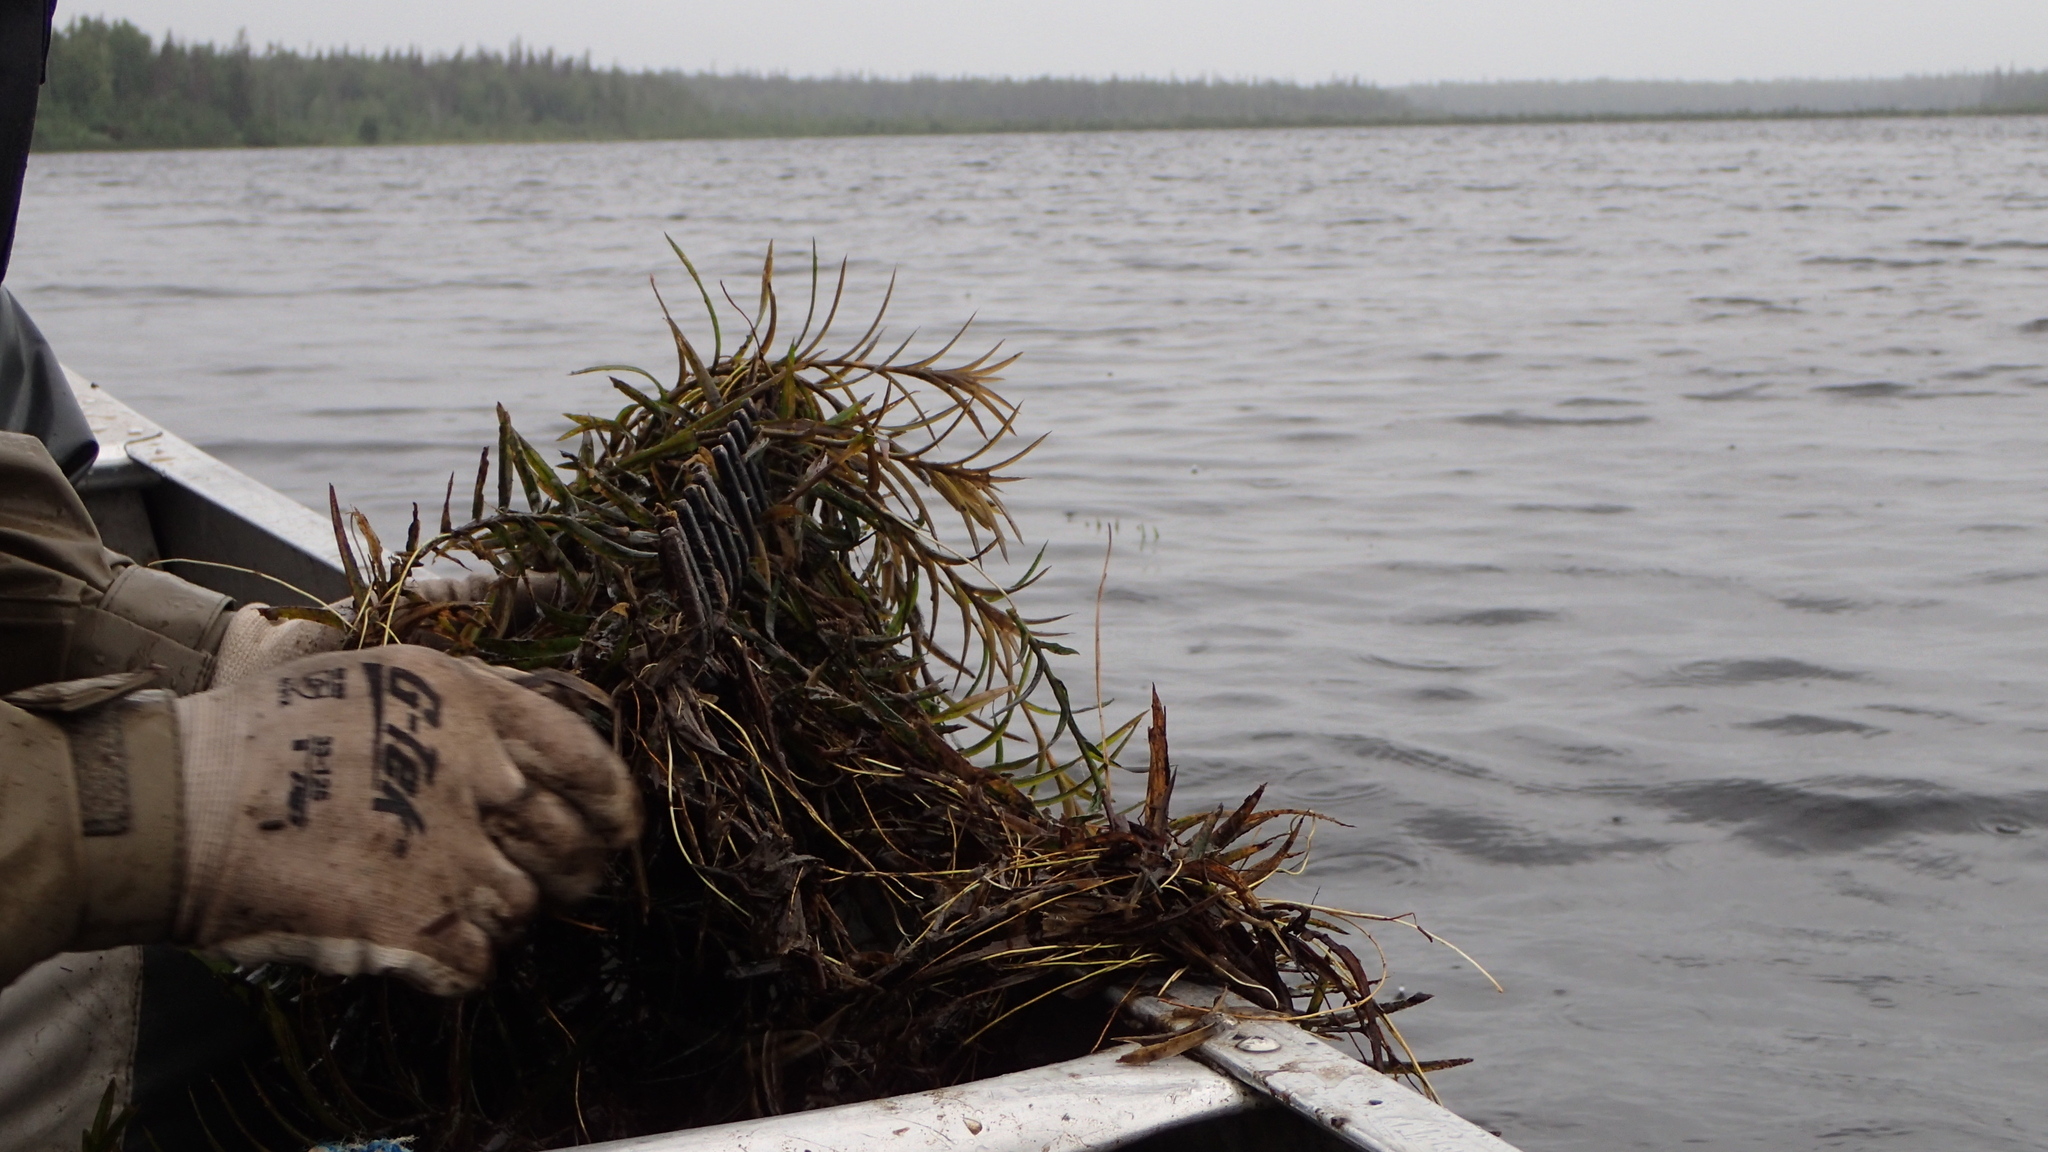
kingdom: Plantae
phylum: Tracheophyta
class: Liliopsida
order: Alismatales
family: Potamogetonaceae
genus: Potamogeton
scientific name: Potamogeton robbinsii
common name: Fern pondweed
